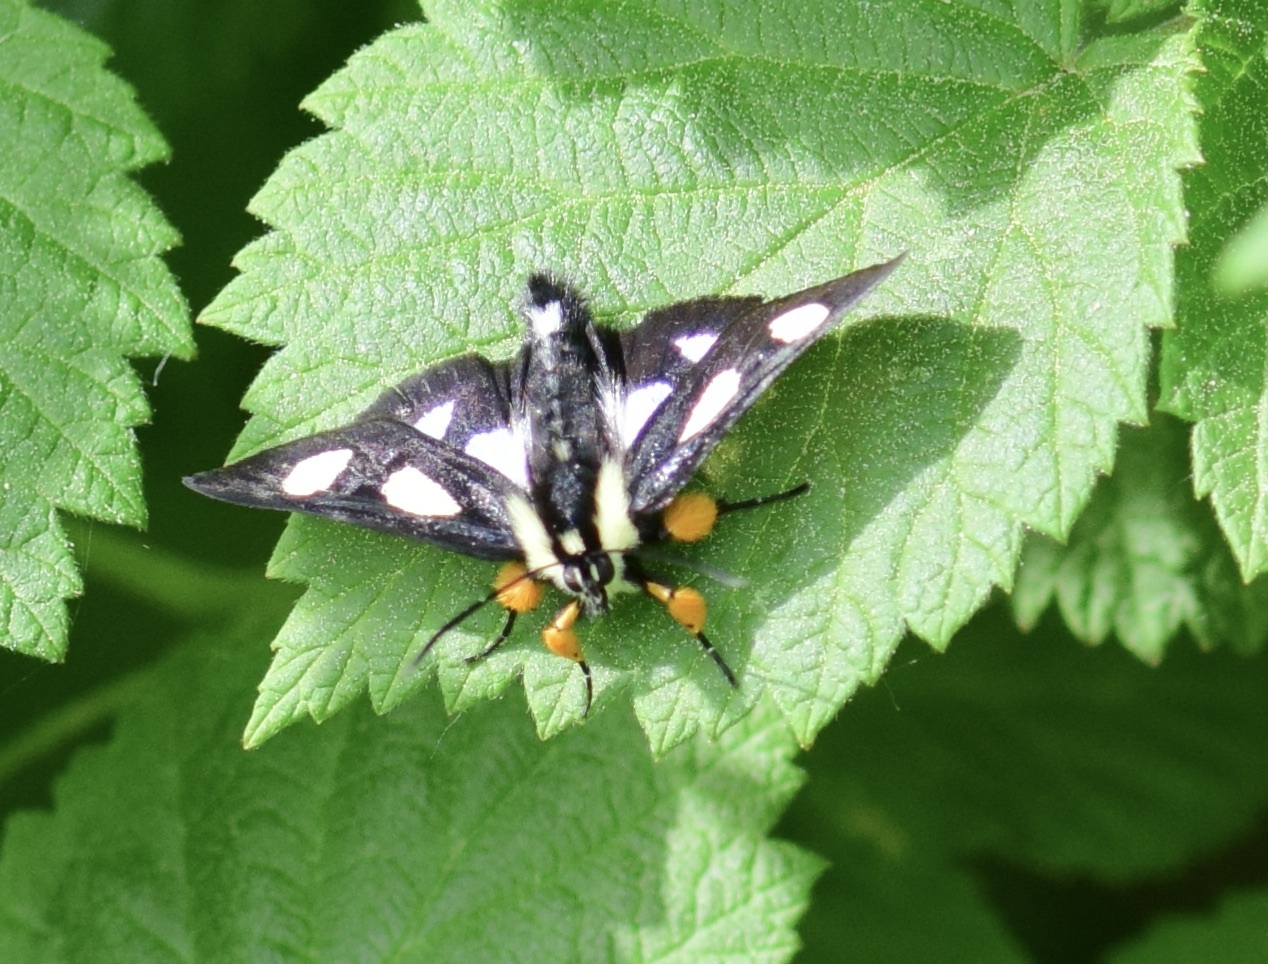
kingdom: Animalia
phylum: Arthropoda
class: Insecta
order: Lepidoptera
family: Noctuidae
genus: Alypia
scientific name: Alypia octomaculata
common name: Eight-spotted forester
